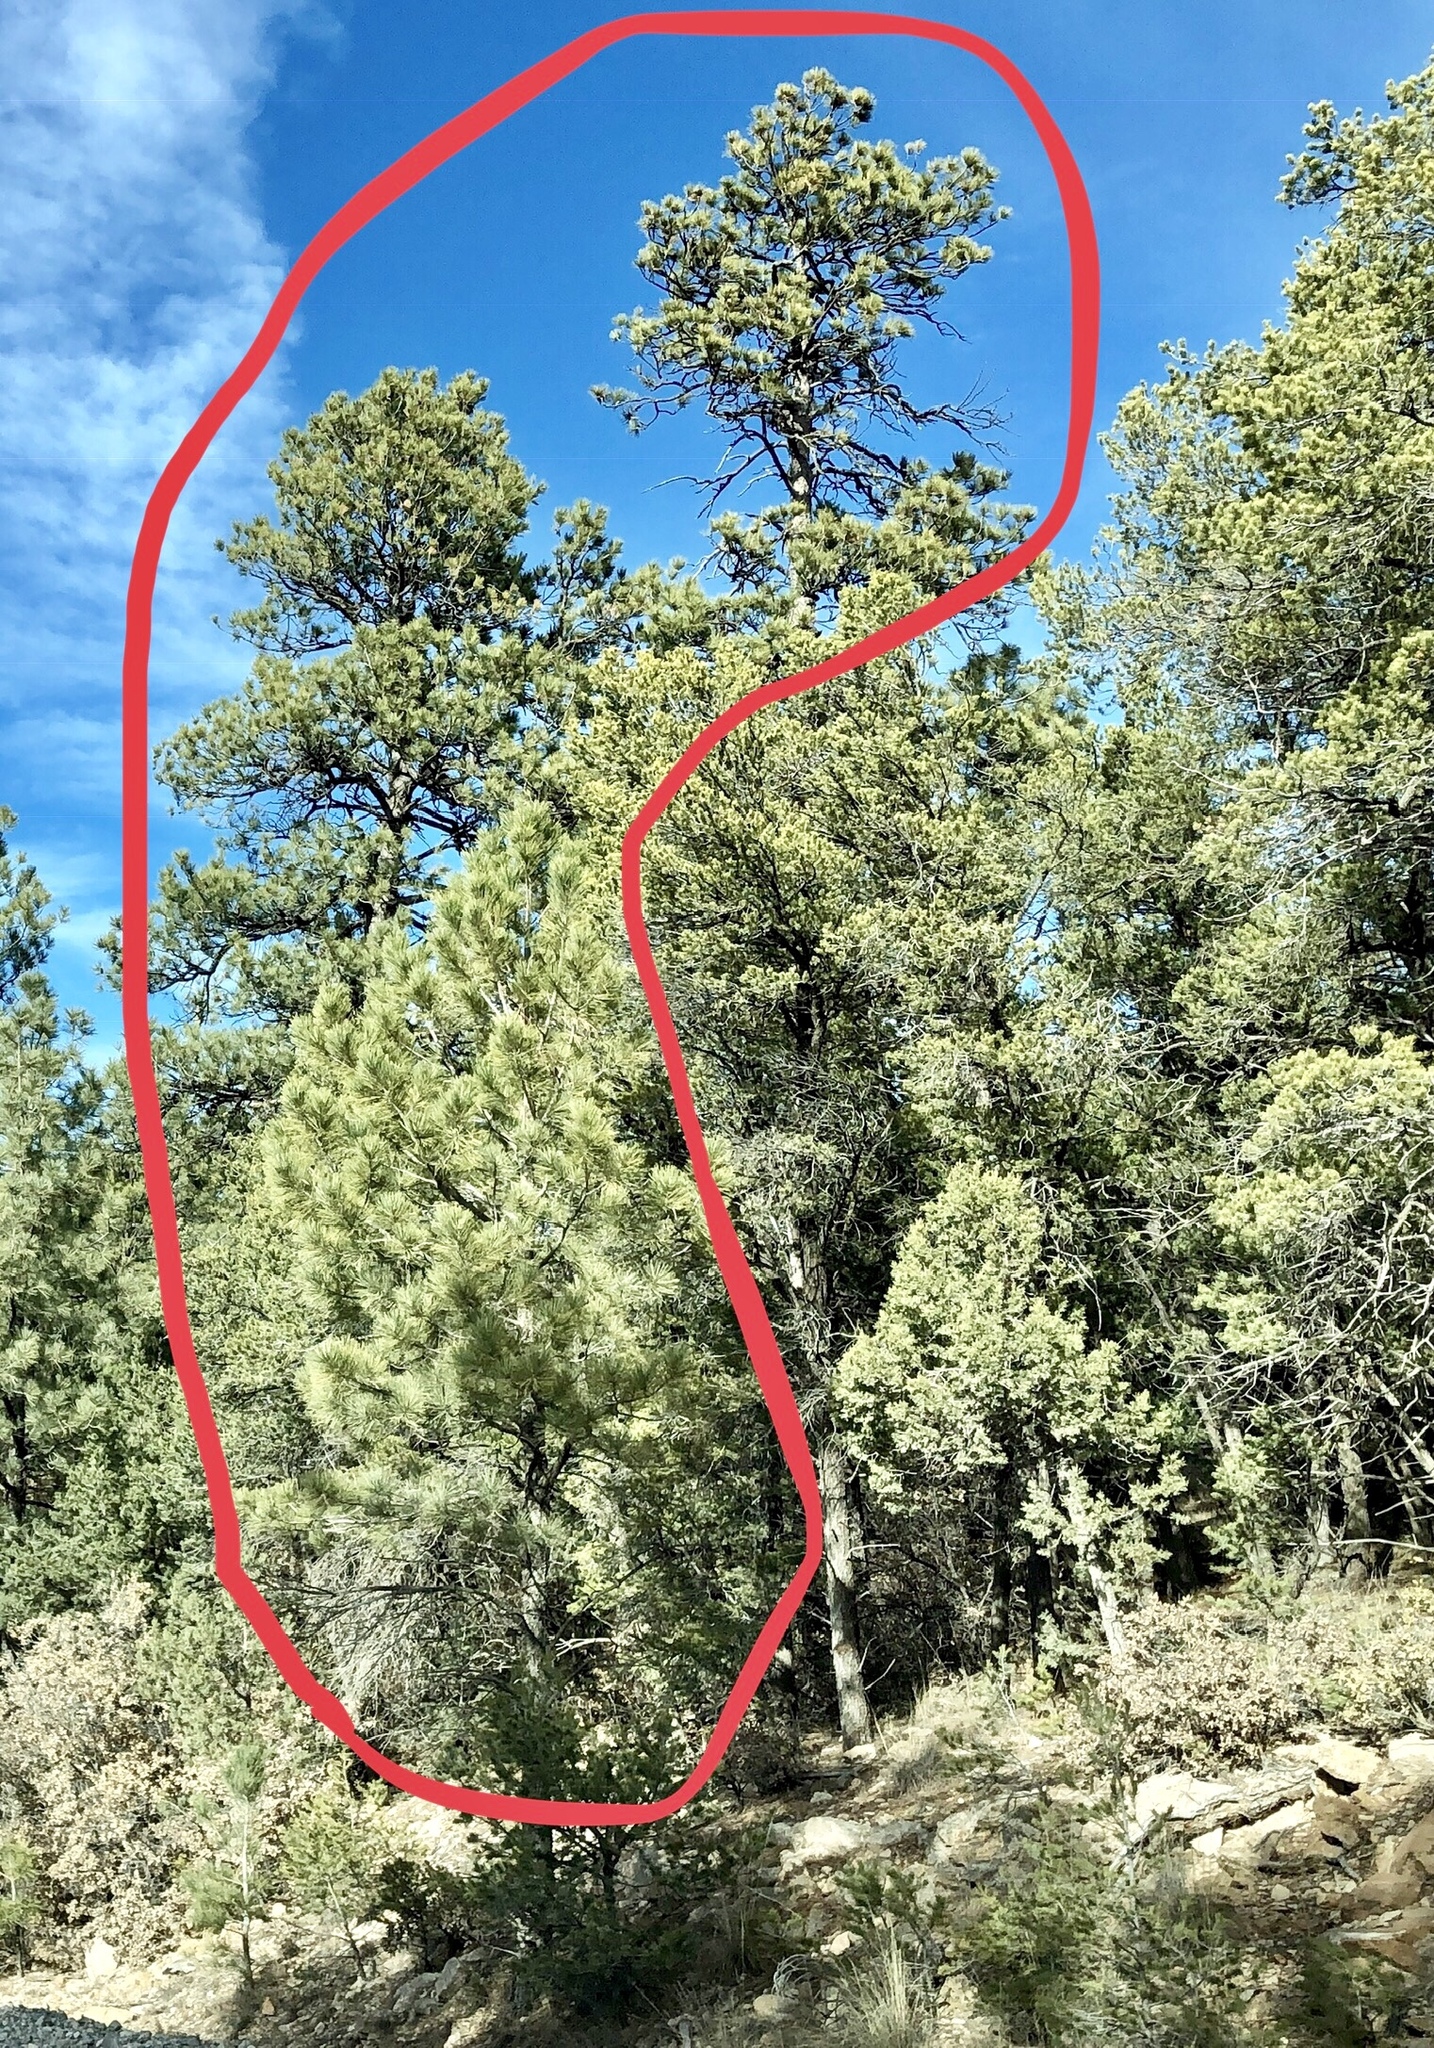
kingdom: Plantae
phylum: Tracheophyta
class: Pinopsida
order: Pinales
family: Pinaceae
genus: Pinus
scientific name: Pinus ponderosa
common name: Western yellow-pine
